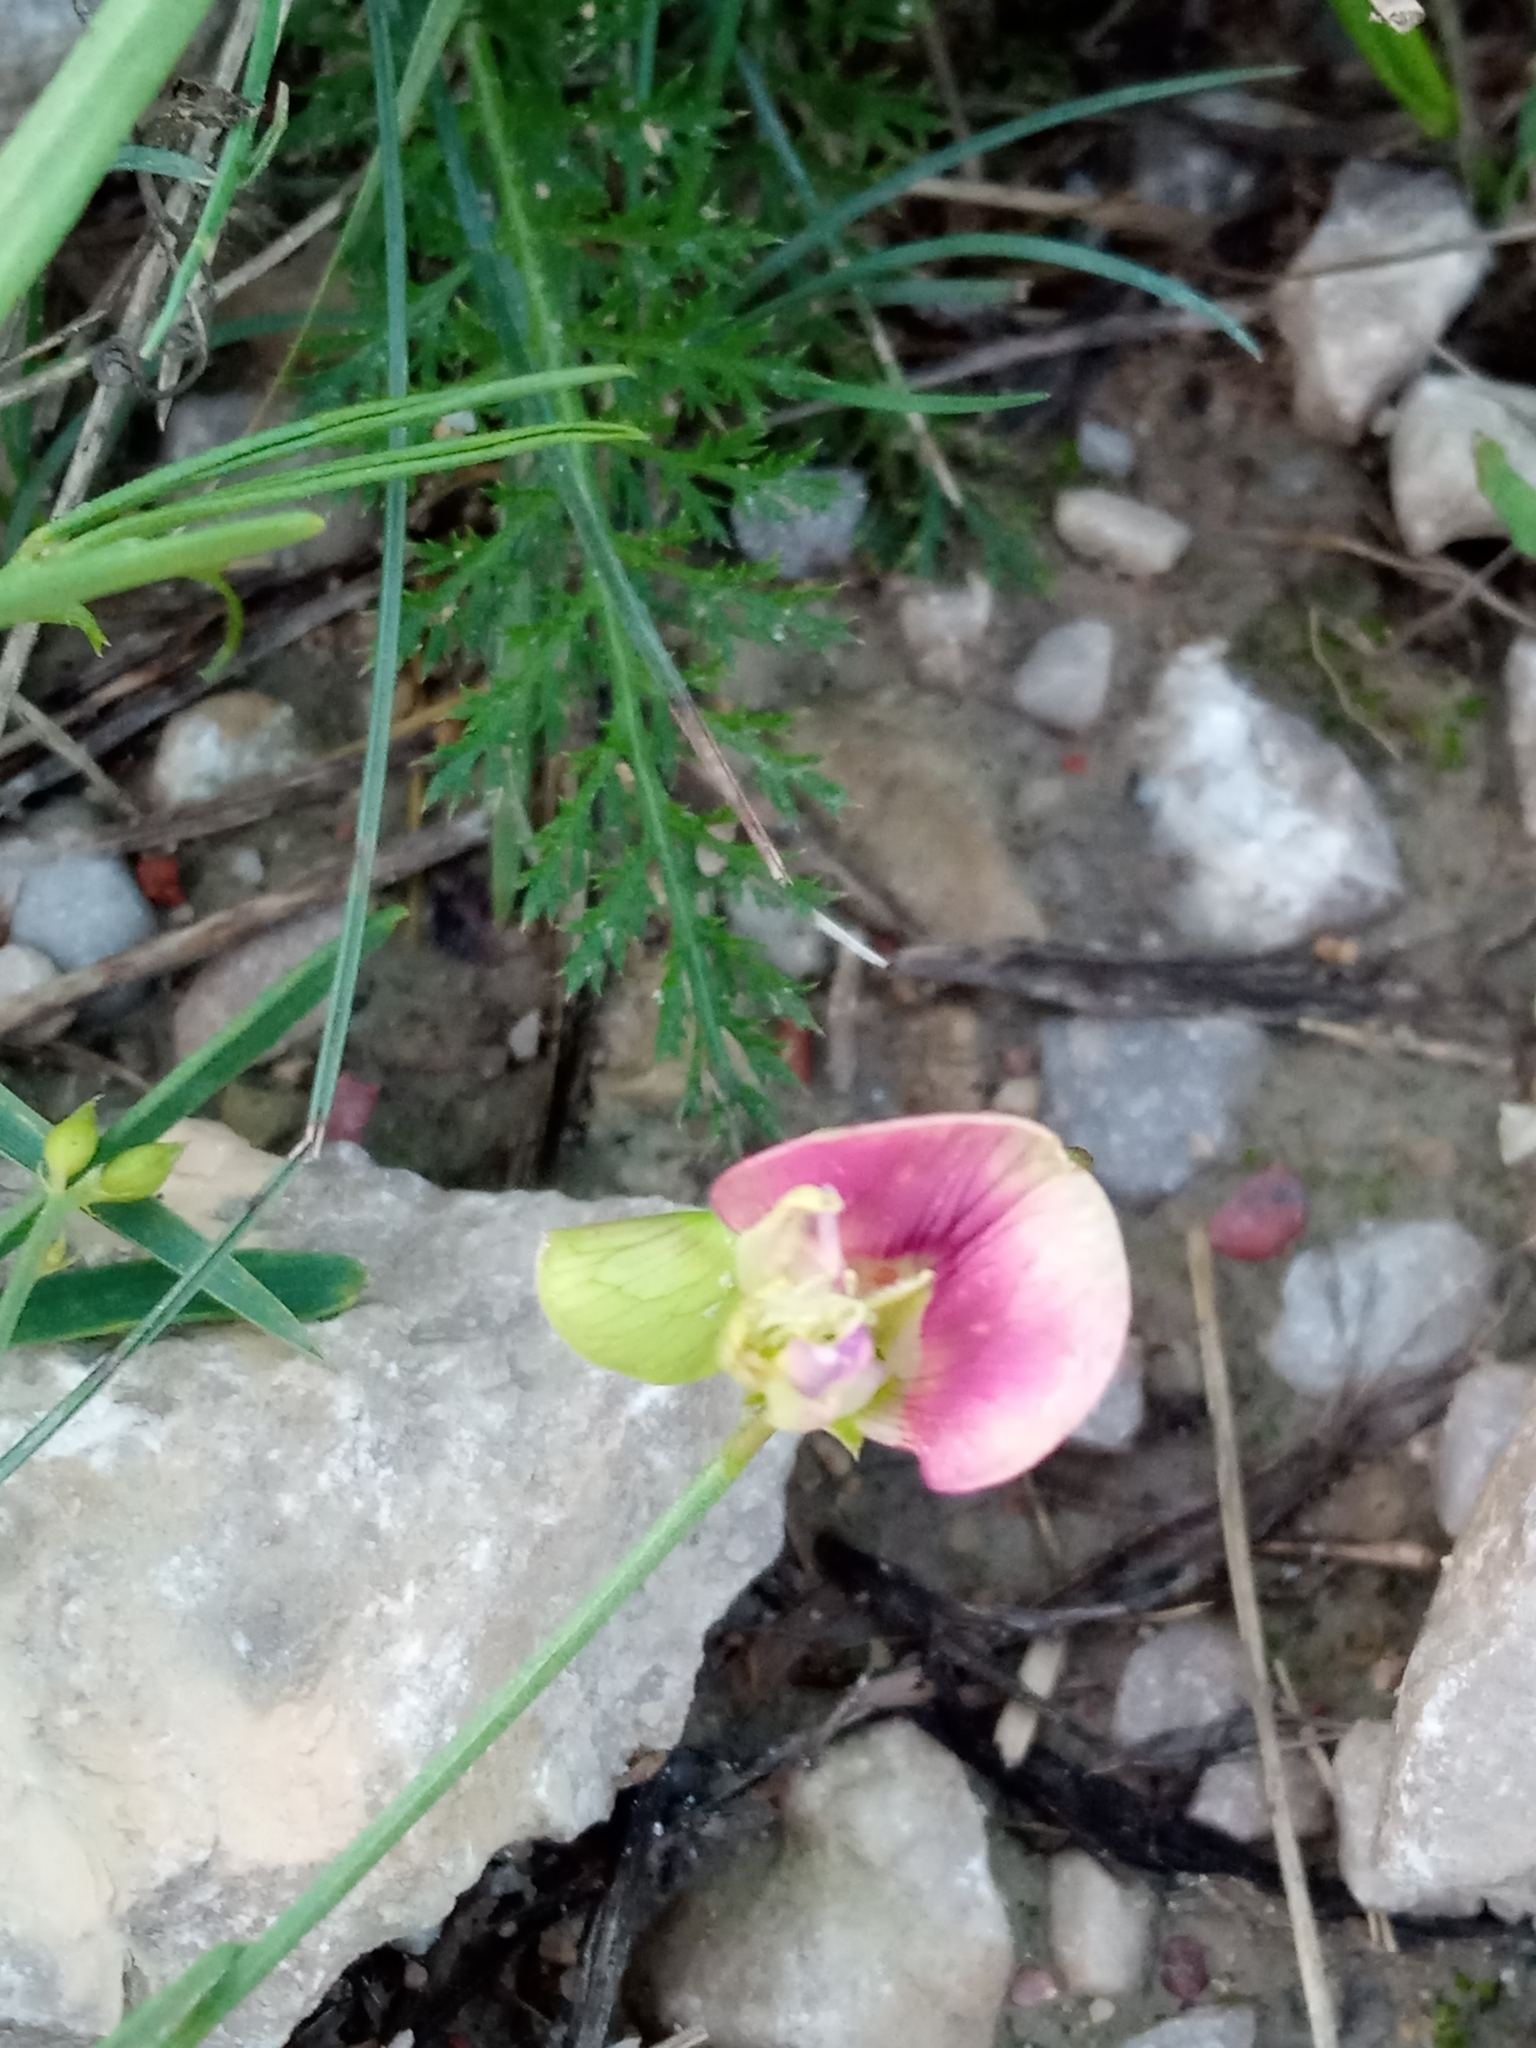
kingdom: Plantae
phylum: Tracheophyta
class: Magnoliopsida
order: Fabales
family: Fabaceae
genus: Lathyrus
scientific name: Lathyrus sylvestris
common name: Flat pea
